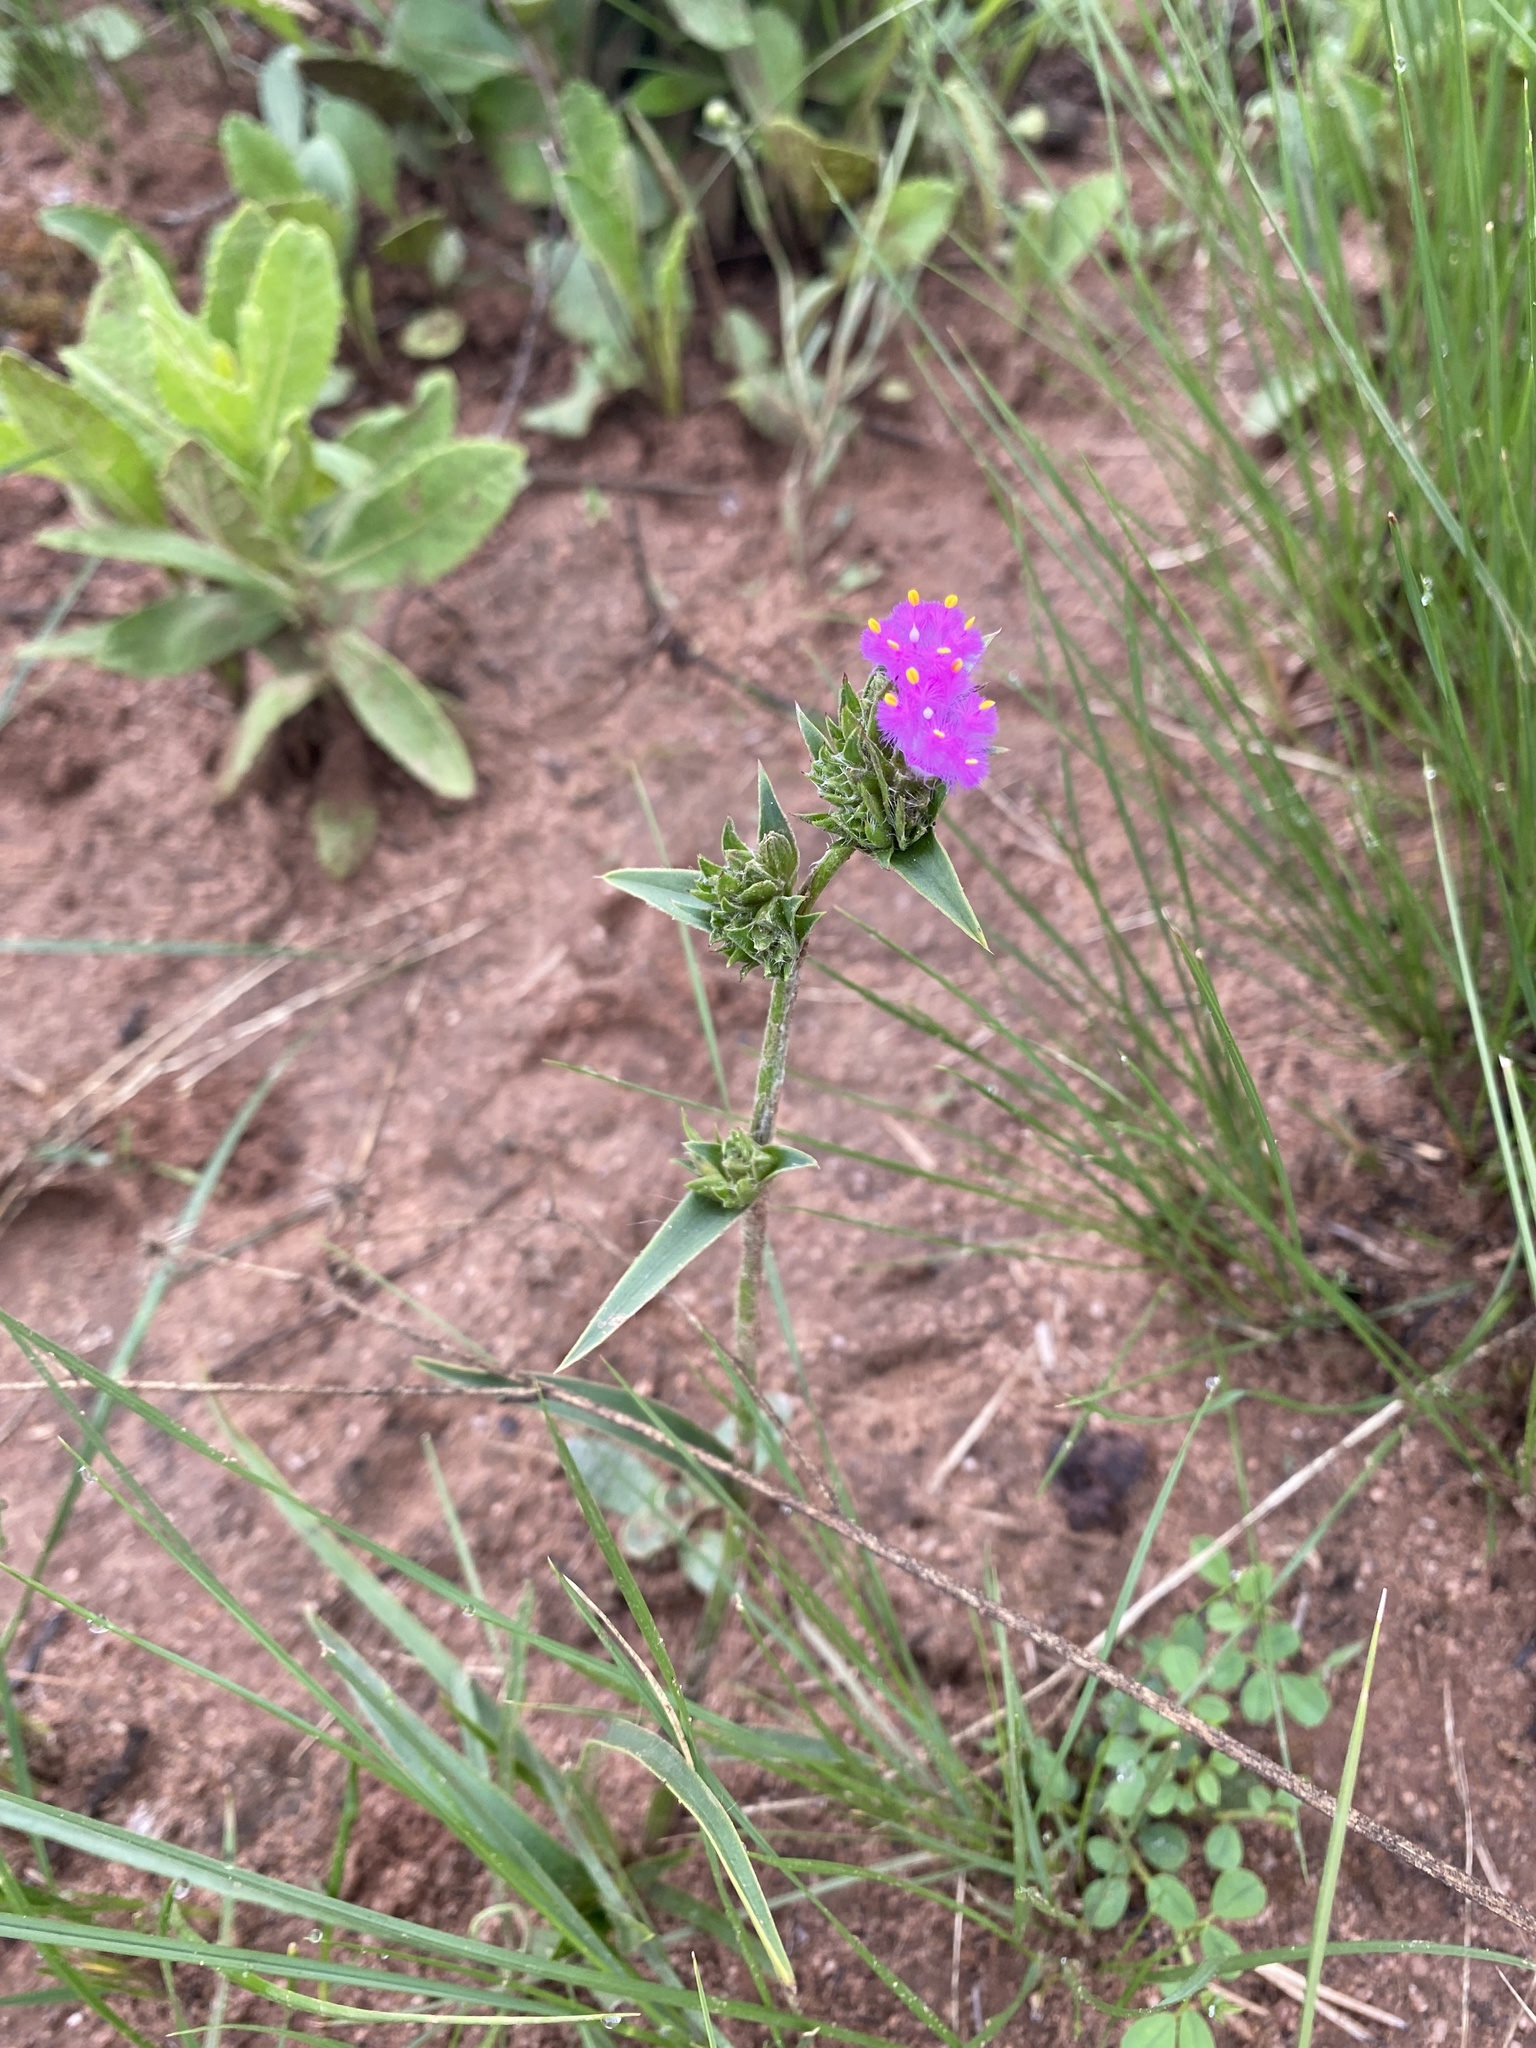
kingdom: Plantae
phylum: Tracheophyta
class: Liliopsida
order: Commelinales
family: Commelinaceae
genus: Cyanotis
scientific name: Cyanotis speciosa
